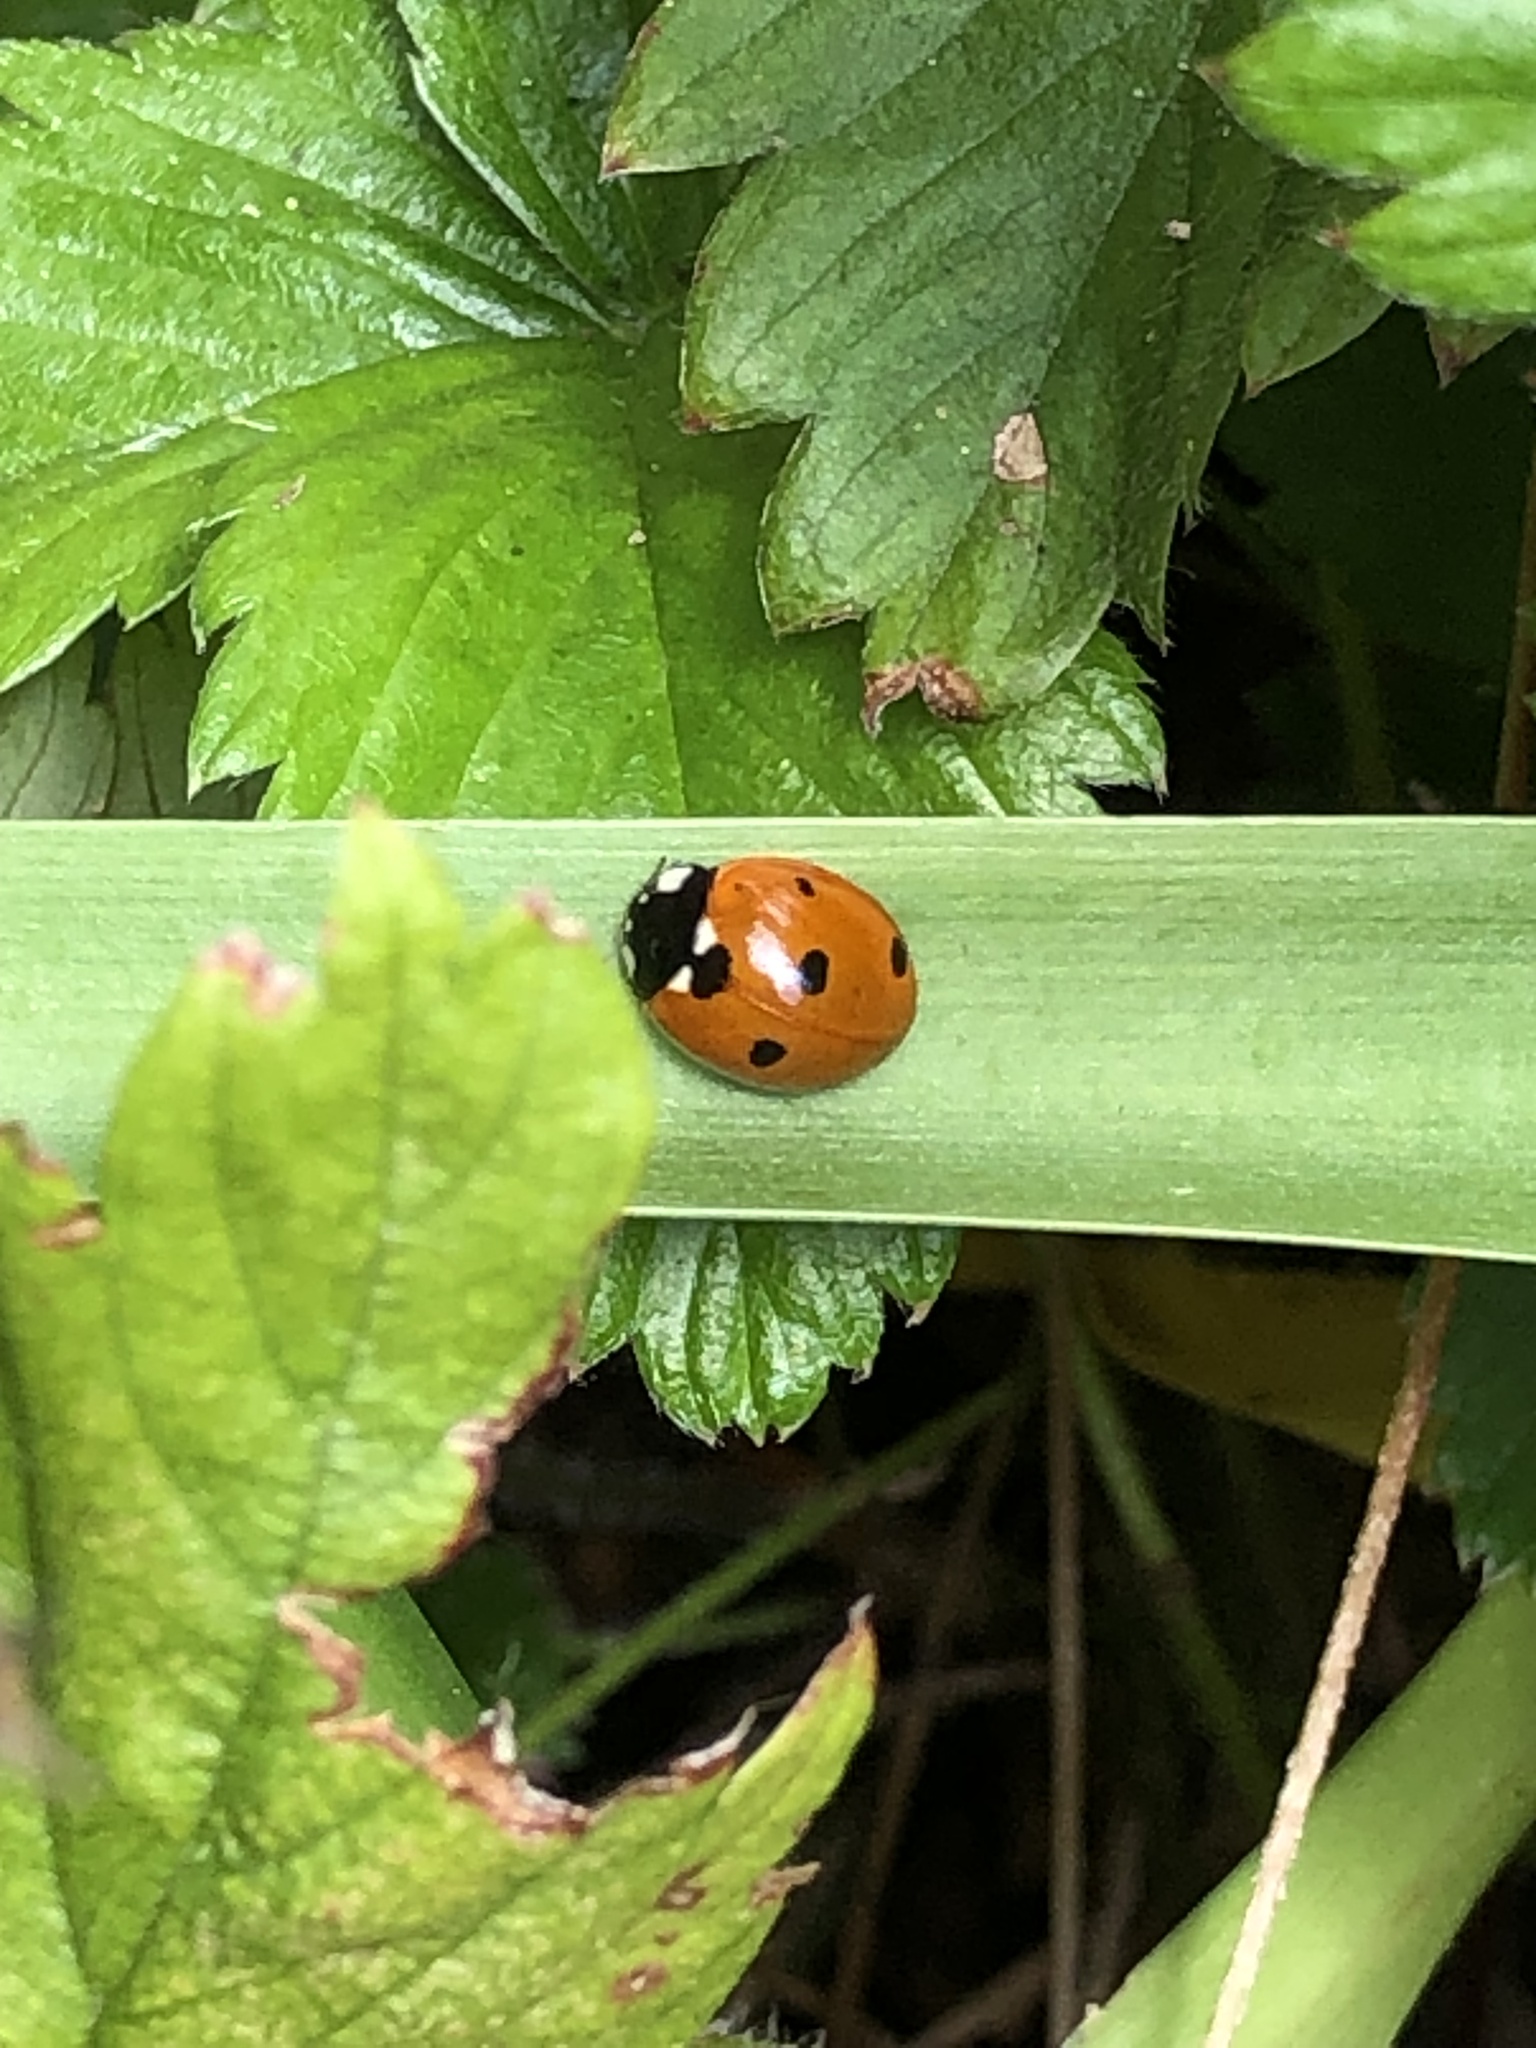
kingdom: Animalia
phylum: Arthropoda
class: Insecta
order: Coleoptera
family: Coccinellidae
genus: Coccinella
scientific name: Coccinella septempunctata
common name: Sevenspotted lady beetle
